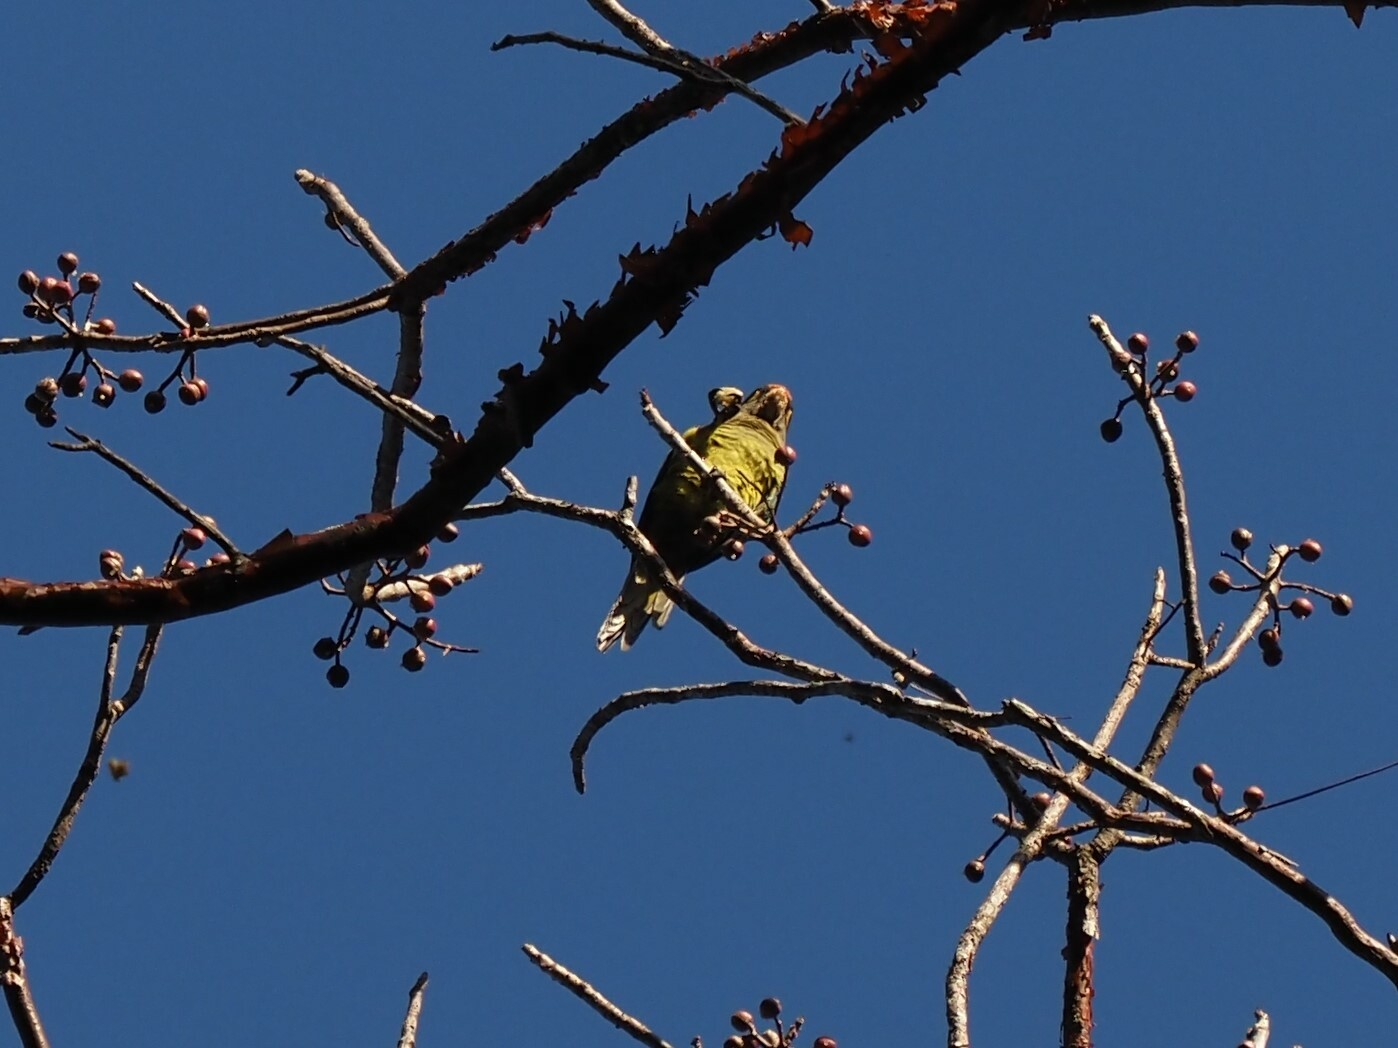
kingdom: Animalia
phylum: Chordata
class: Aves
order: Psittaciformes
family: Psittacidae
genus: Aratinga
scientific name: Aratinga canicularis
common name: Orange-fronted parakeet
